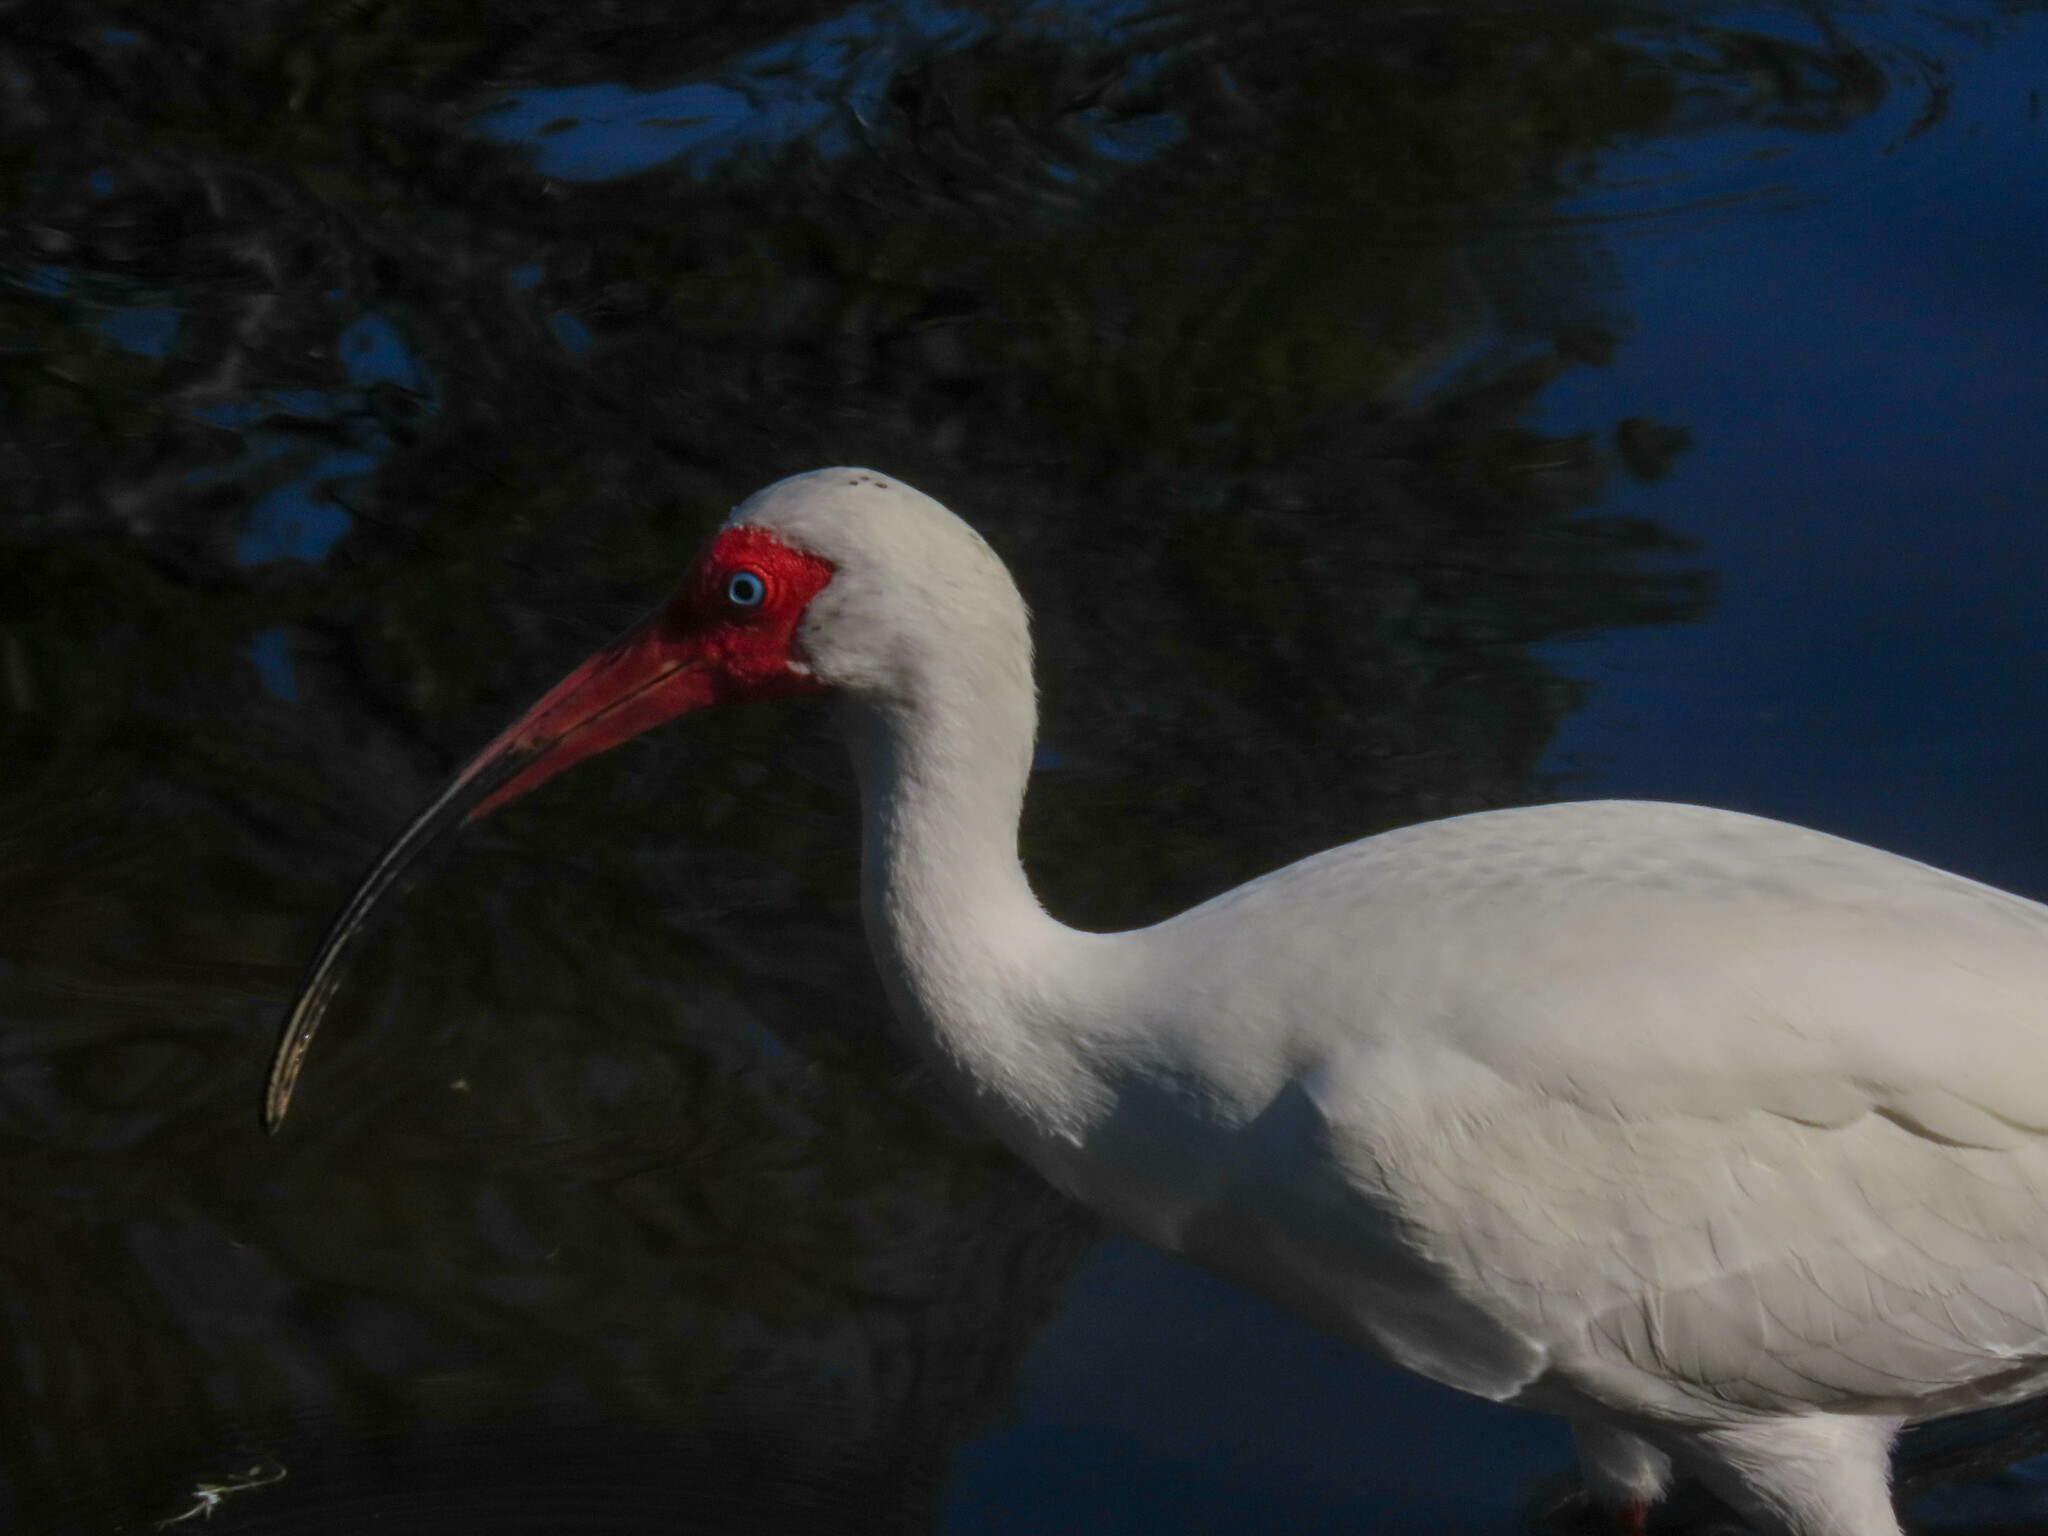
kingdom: Animalia
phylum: Chordata
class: Aves
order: Pelecaniformes
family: Threskiornithidae
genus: Eudocimus
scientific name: Eudocimus albus
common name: White ibis
